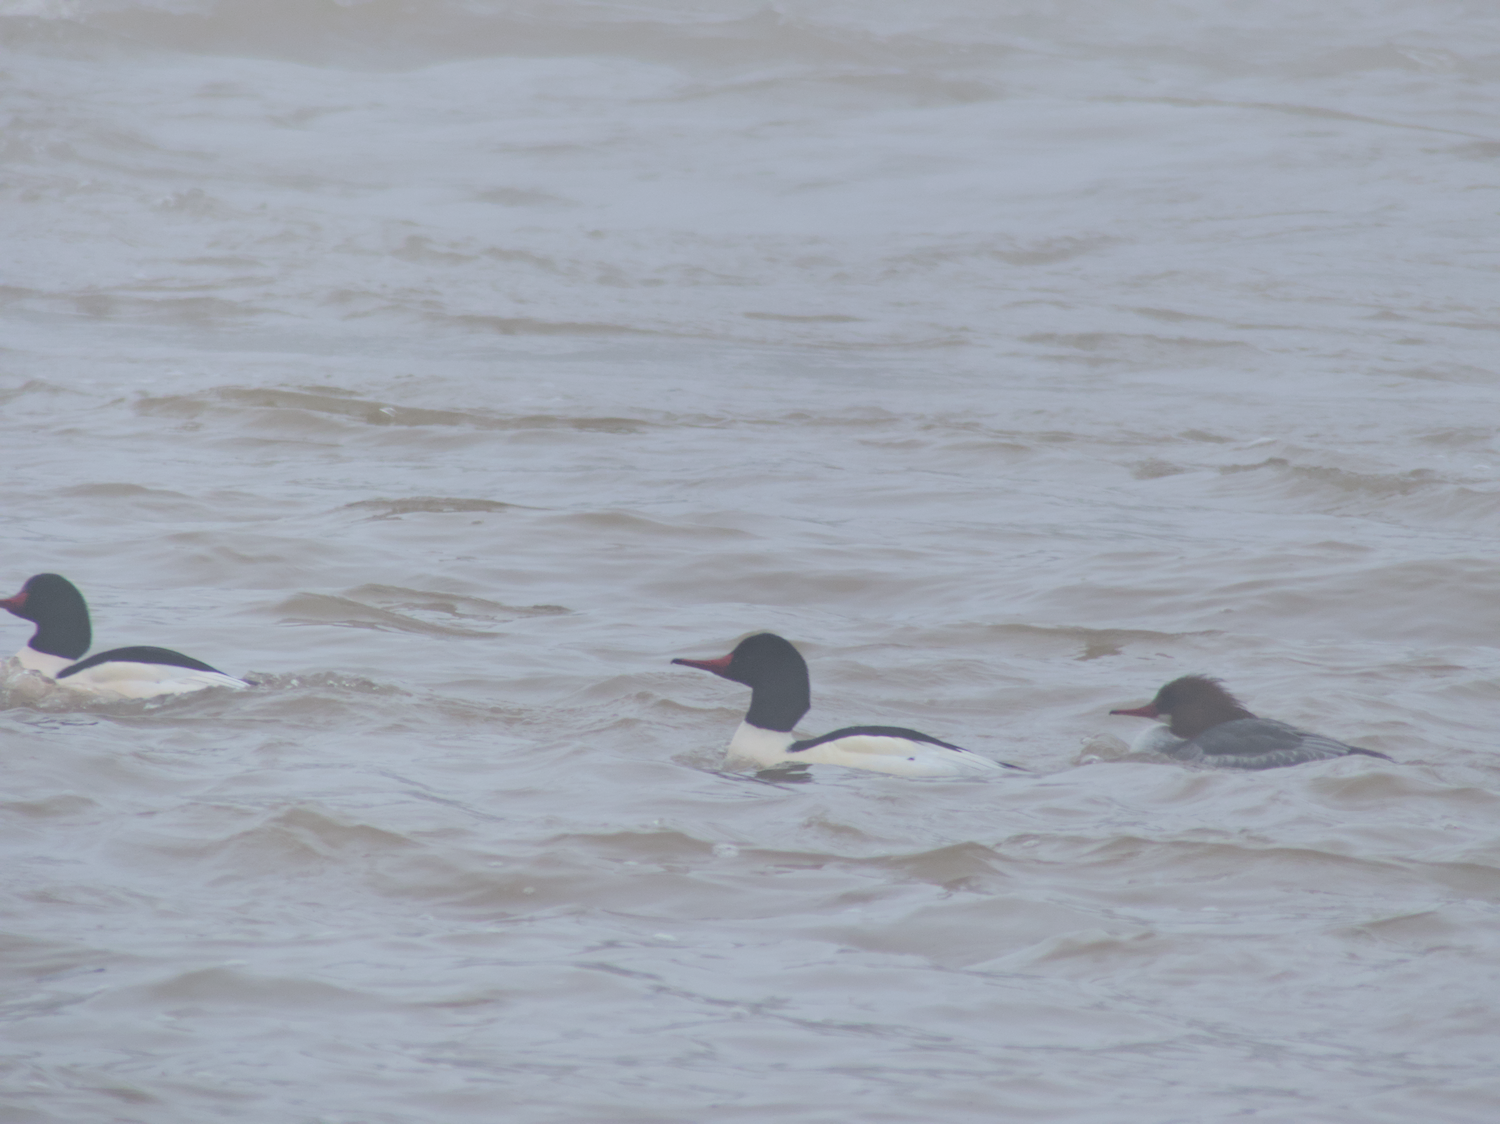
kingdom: Animalia
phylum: Chordata
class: Aves
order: Anseriformes
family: Anatidae
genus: Mergus
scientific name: Mergus merganser
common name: Common merganser
